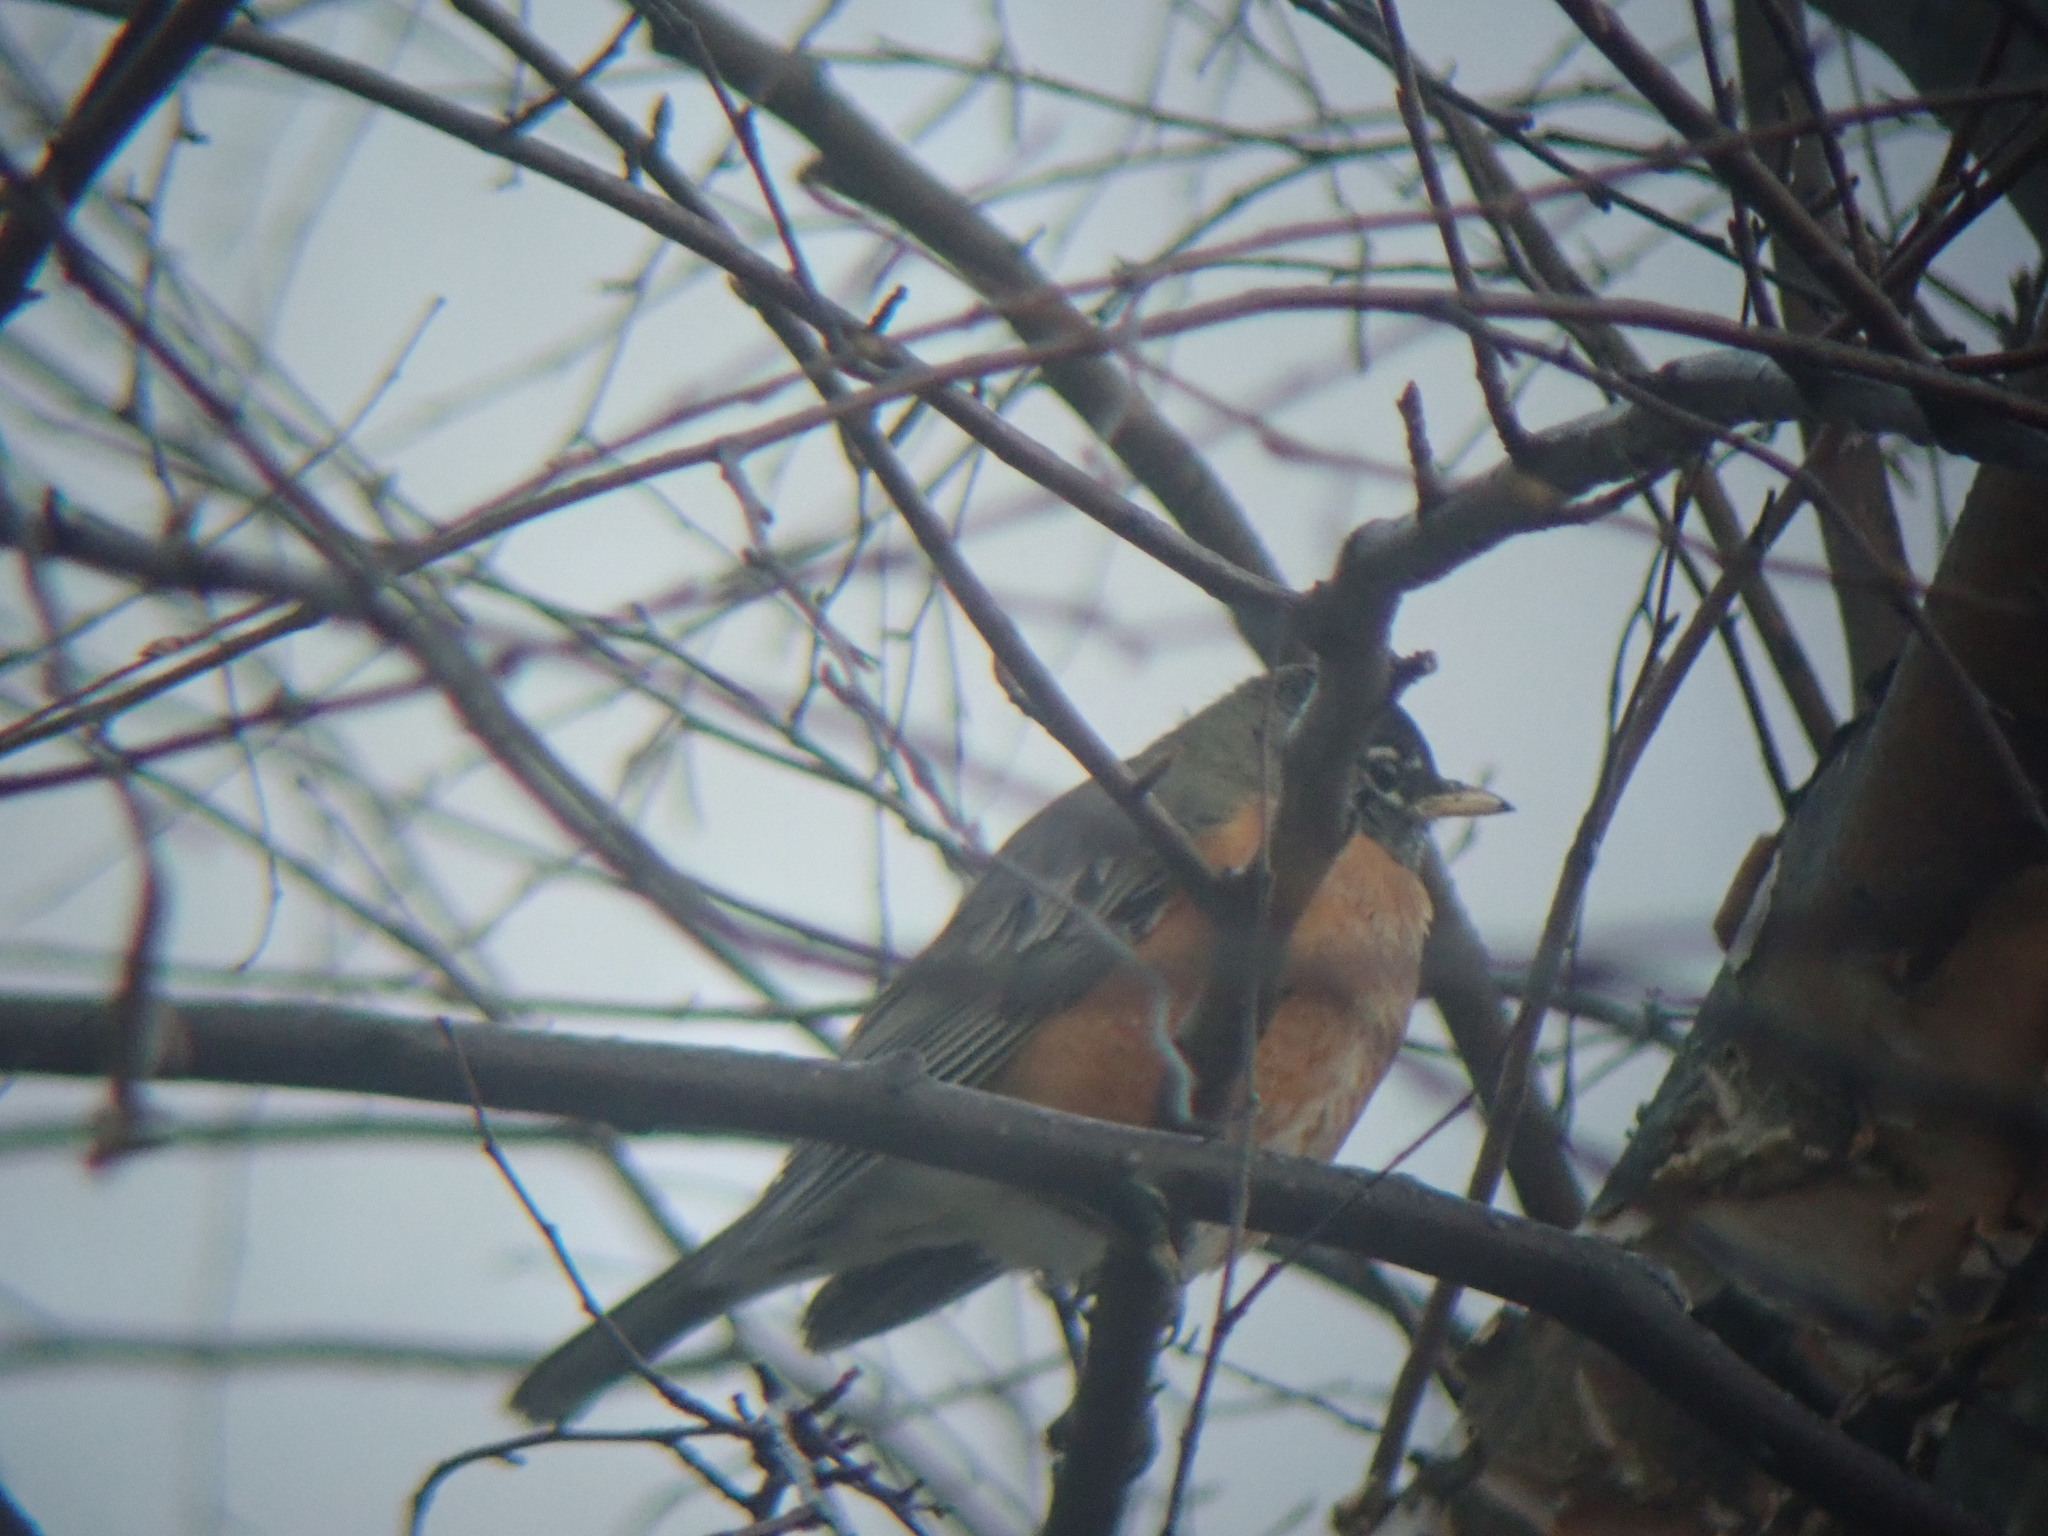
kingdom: Animalia
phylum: Chordata
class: Aves
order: Passeriformes
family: Turdidae
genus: Turdus
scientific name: Turdus migratorius
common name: American robin
